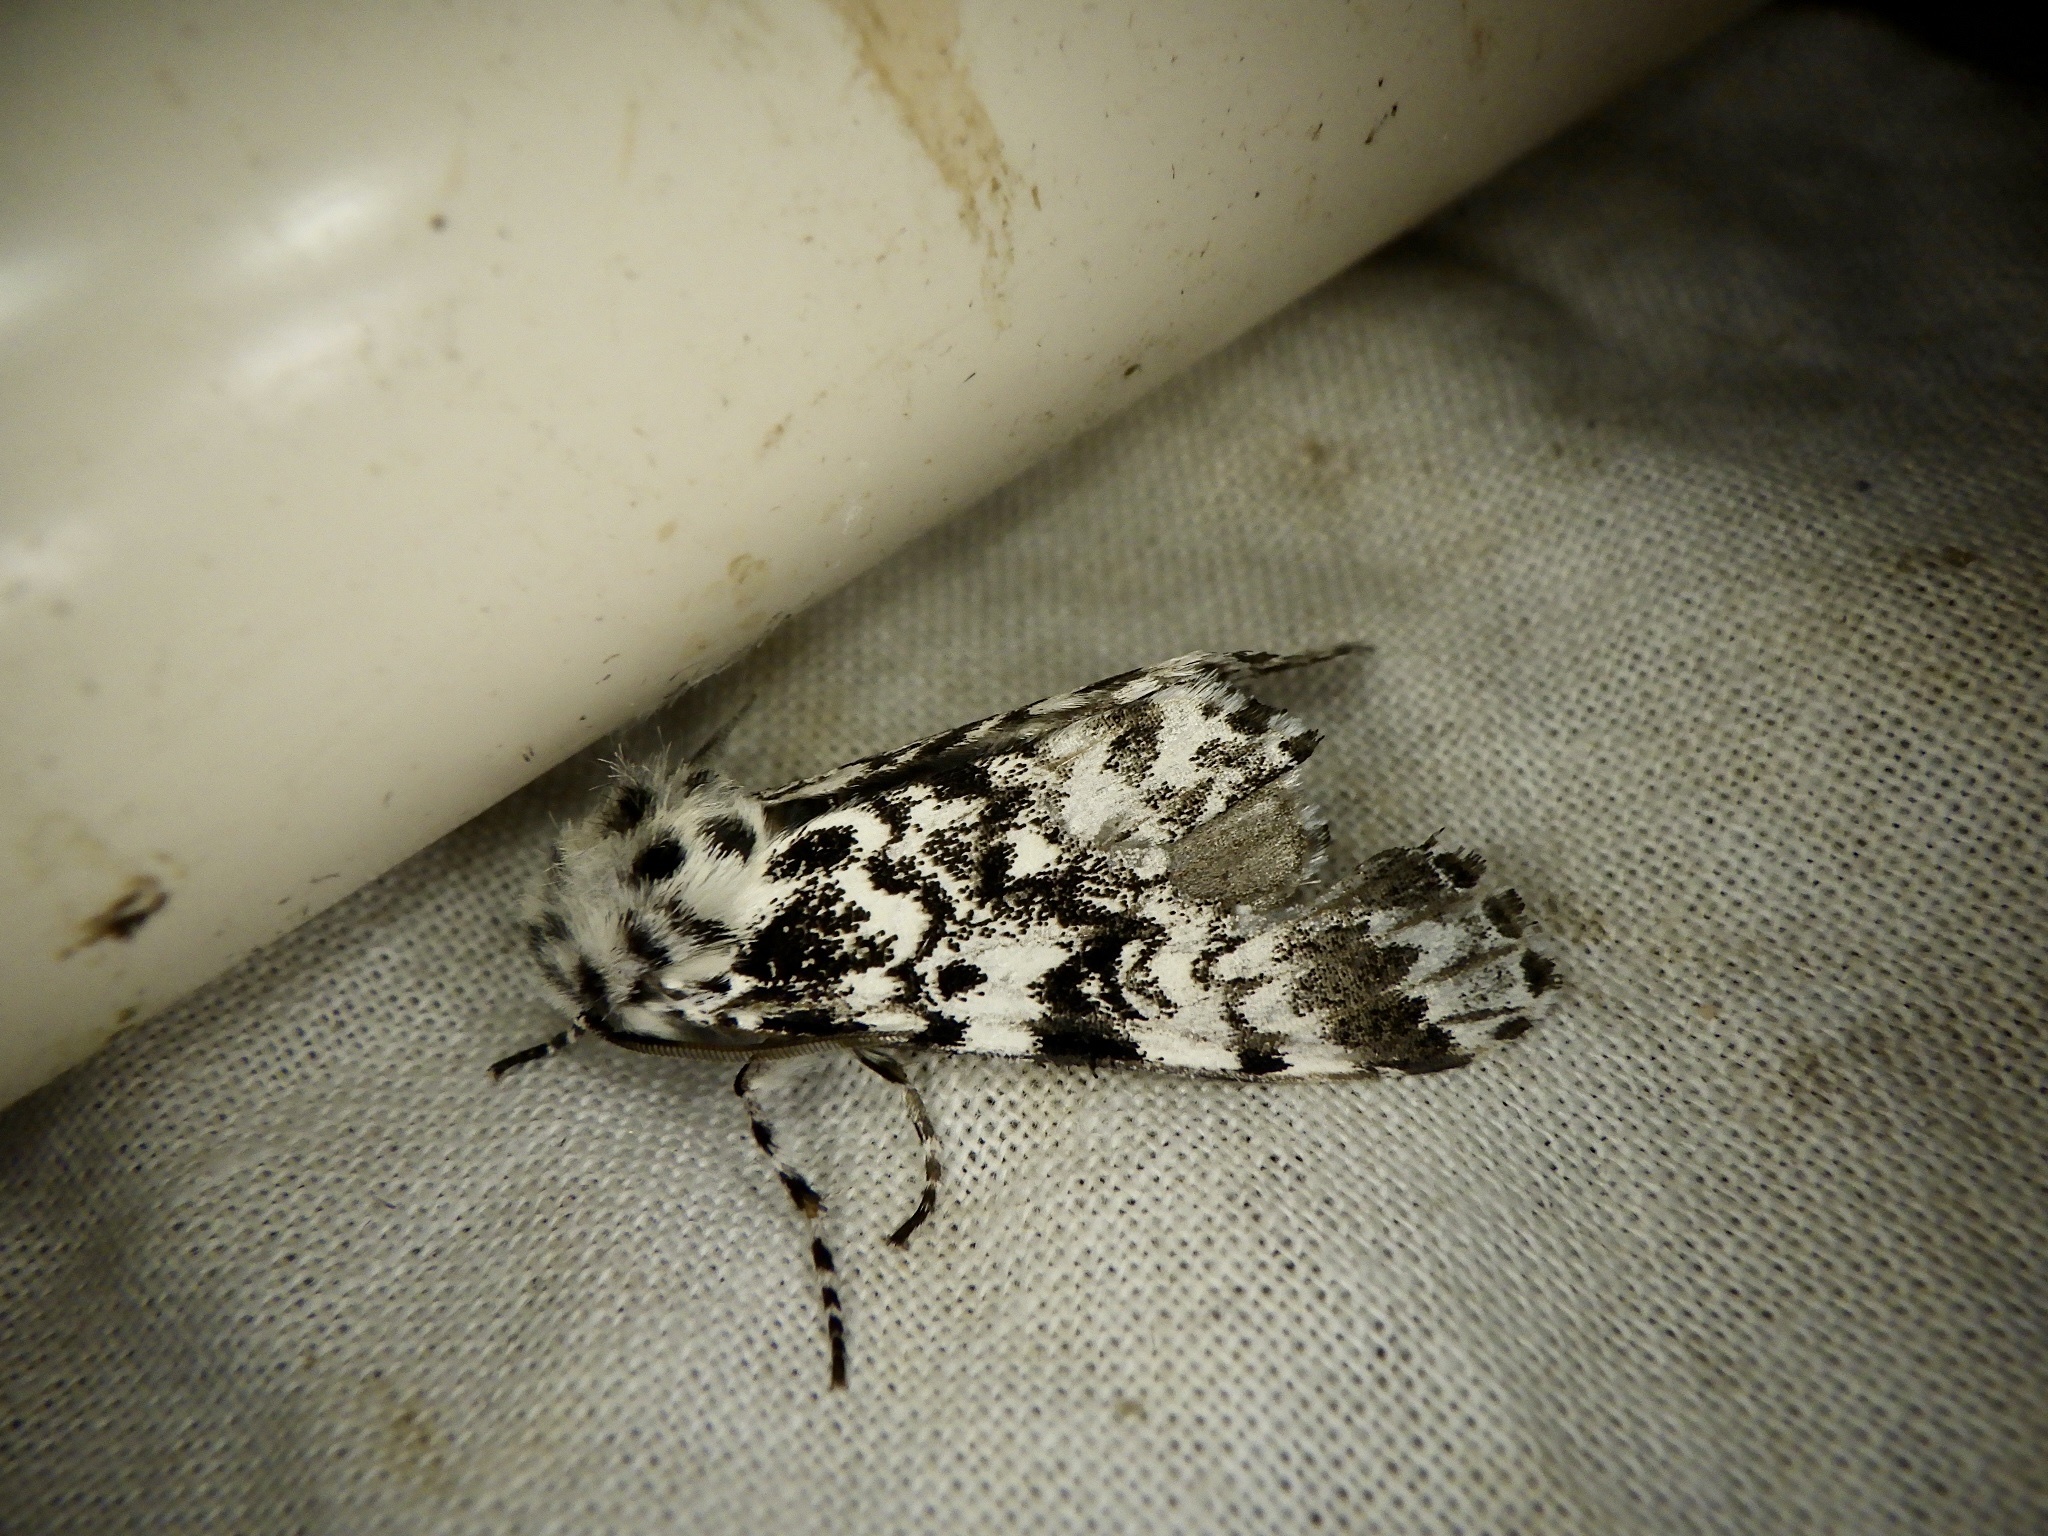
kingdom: Animalia
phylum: Arthropoda
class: Insecta
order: Lepidoptera
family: Noctuidae
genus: Panthea
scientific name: Panthea coenobita
